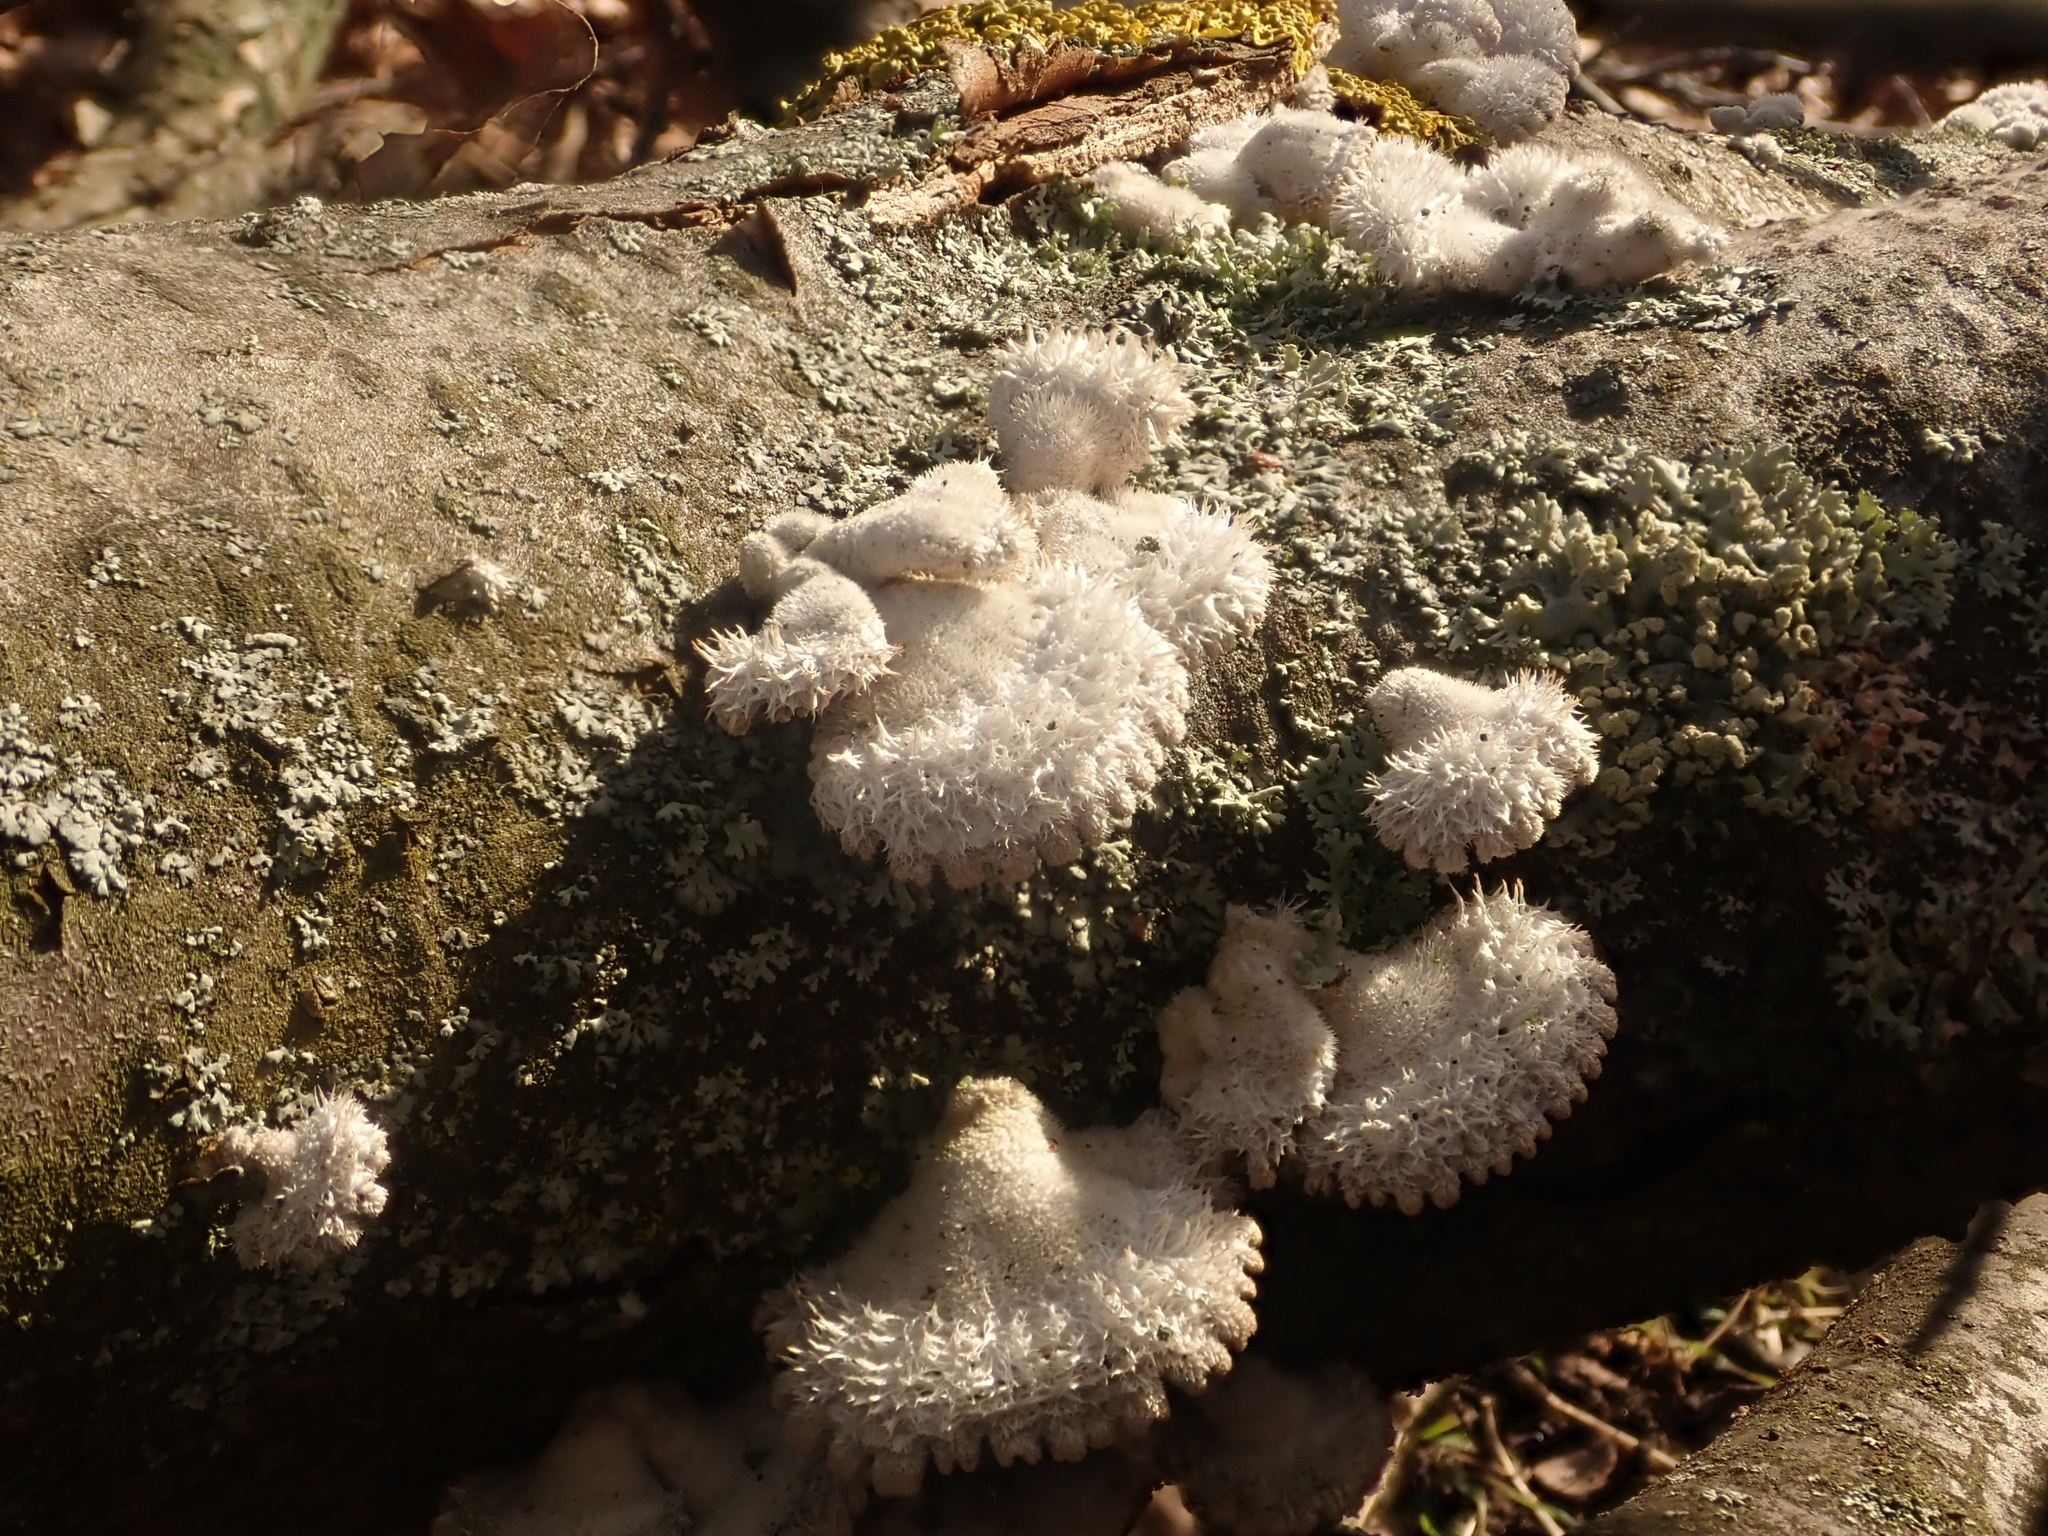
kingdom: Fungi
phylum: Basidiomycota
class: Agaricomycetes
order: Agaricales
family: Schizophyllaceae
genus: Schizophyllum
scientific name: Schizophyllum commune
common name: Common porecrust
